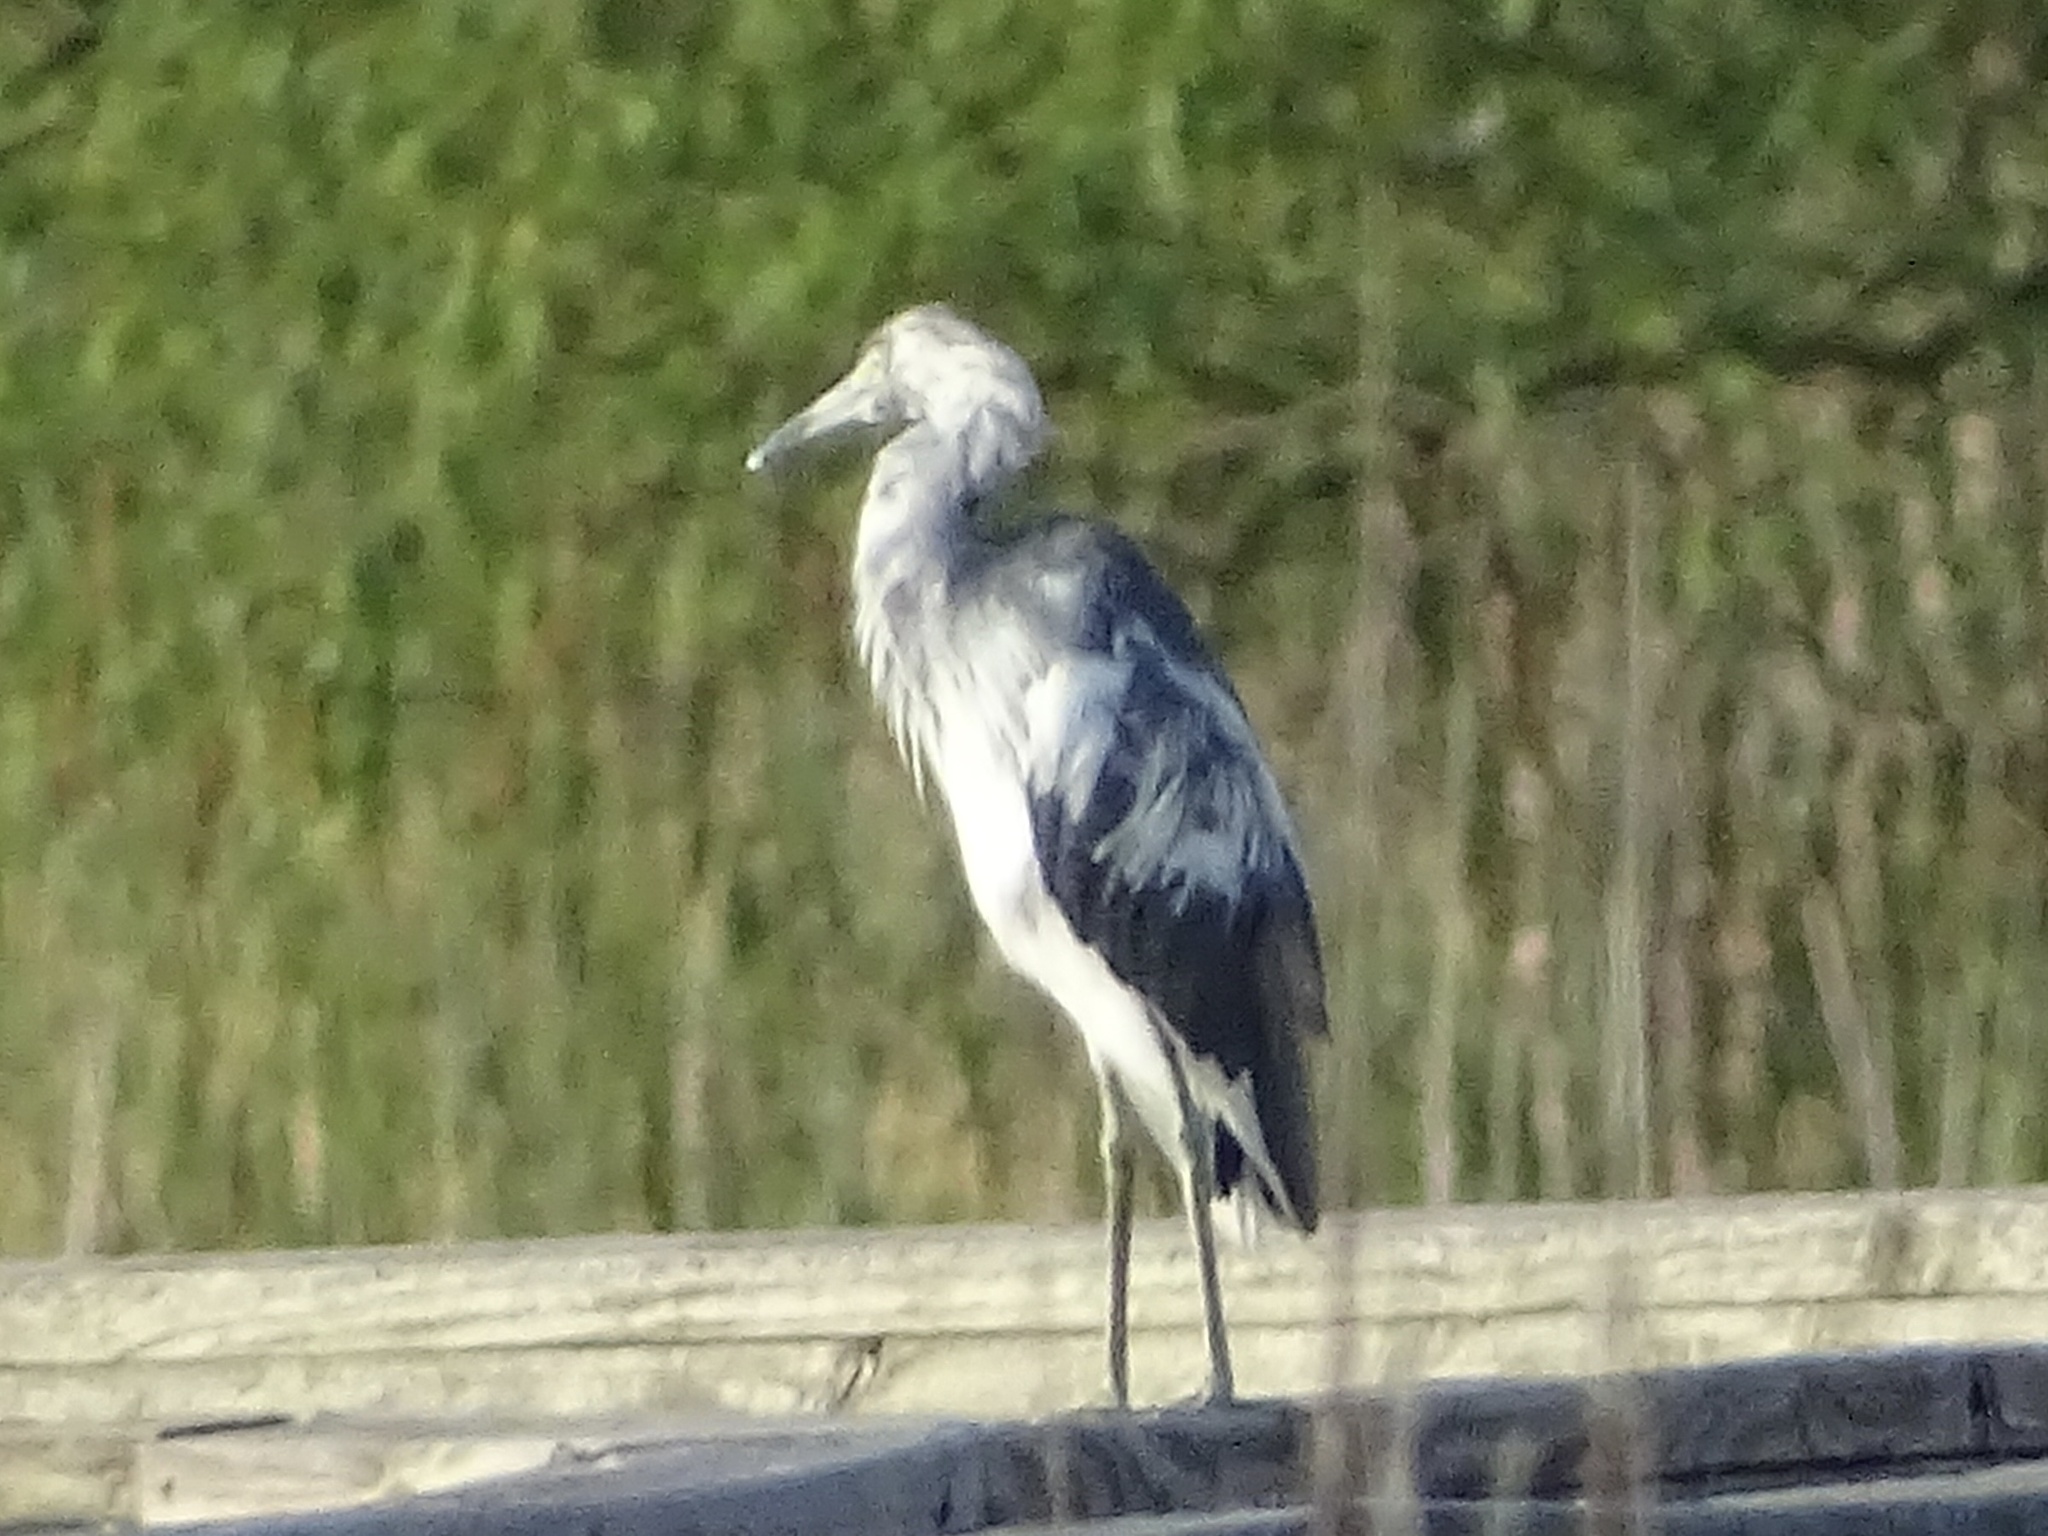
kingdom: Animalia
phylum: Chordata
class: Aves
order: Pelecaniformes
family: Ardeidae
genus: Egretta
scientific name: Egretta caerulea
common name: Little blue heron
